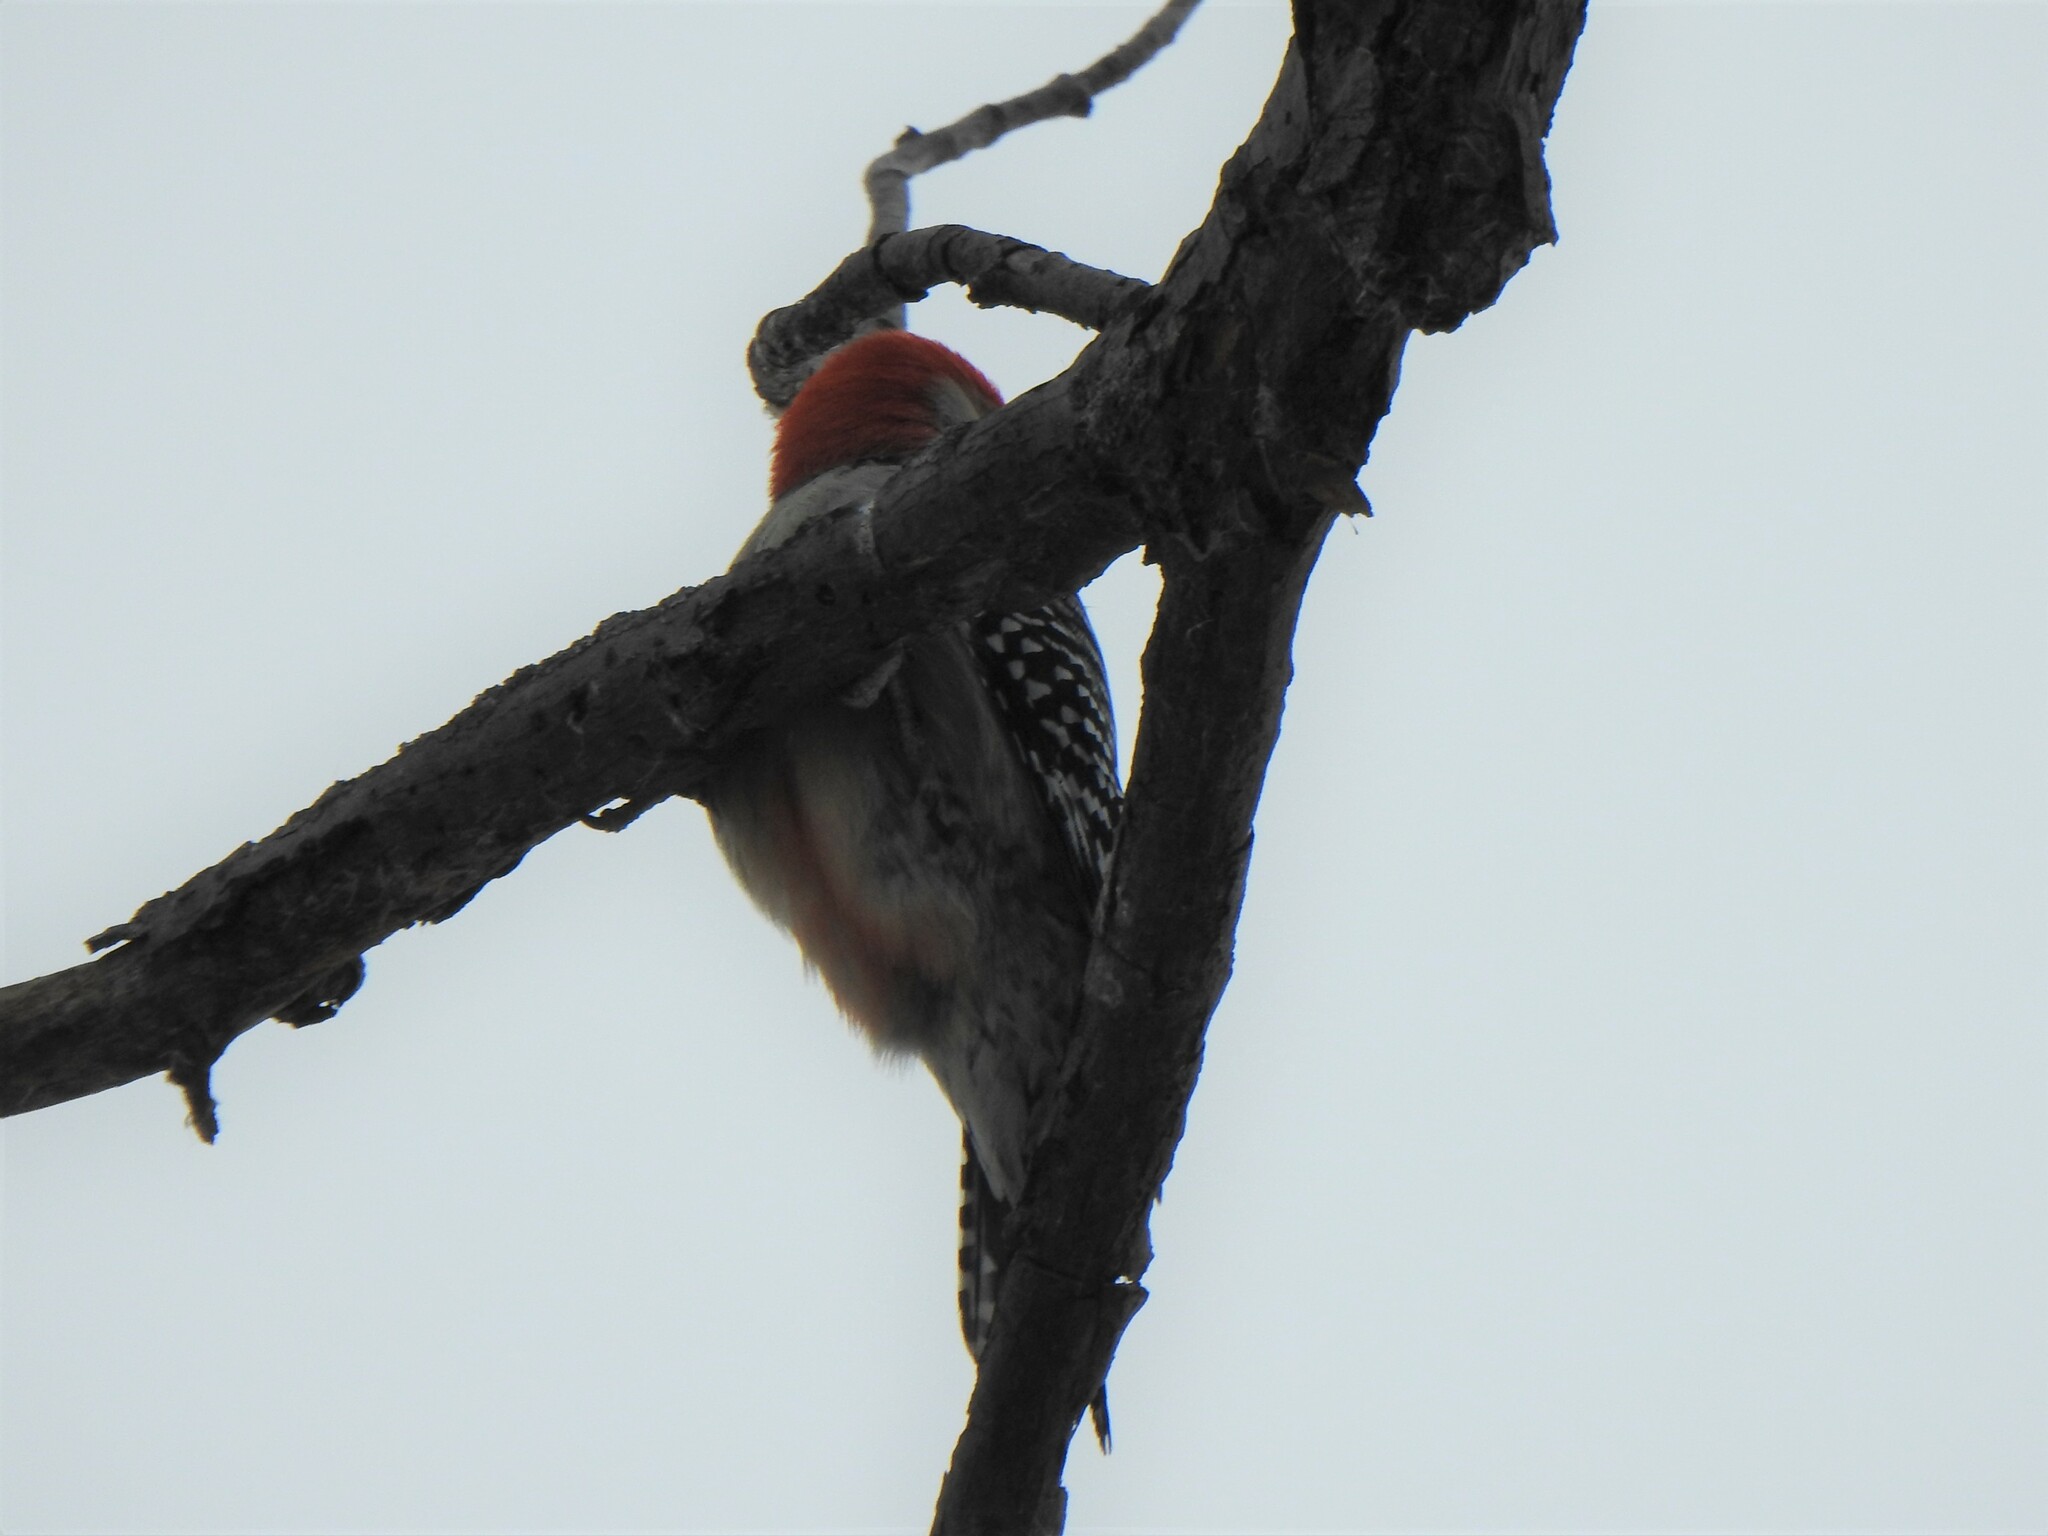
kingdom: Animalia
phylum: Chordata
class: Aves
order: Piciformes
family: Picidae
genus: Melanerpes
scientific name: Melanerpes carolinus
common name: Red-bellied woodpecker
